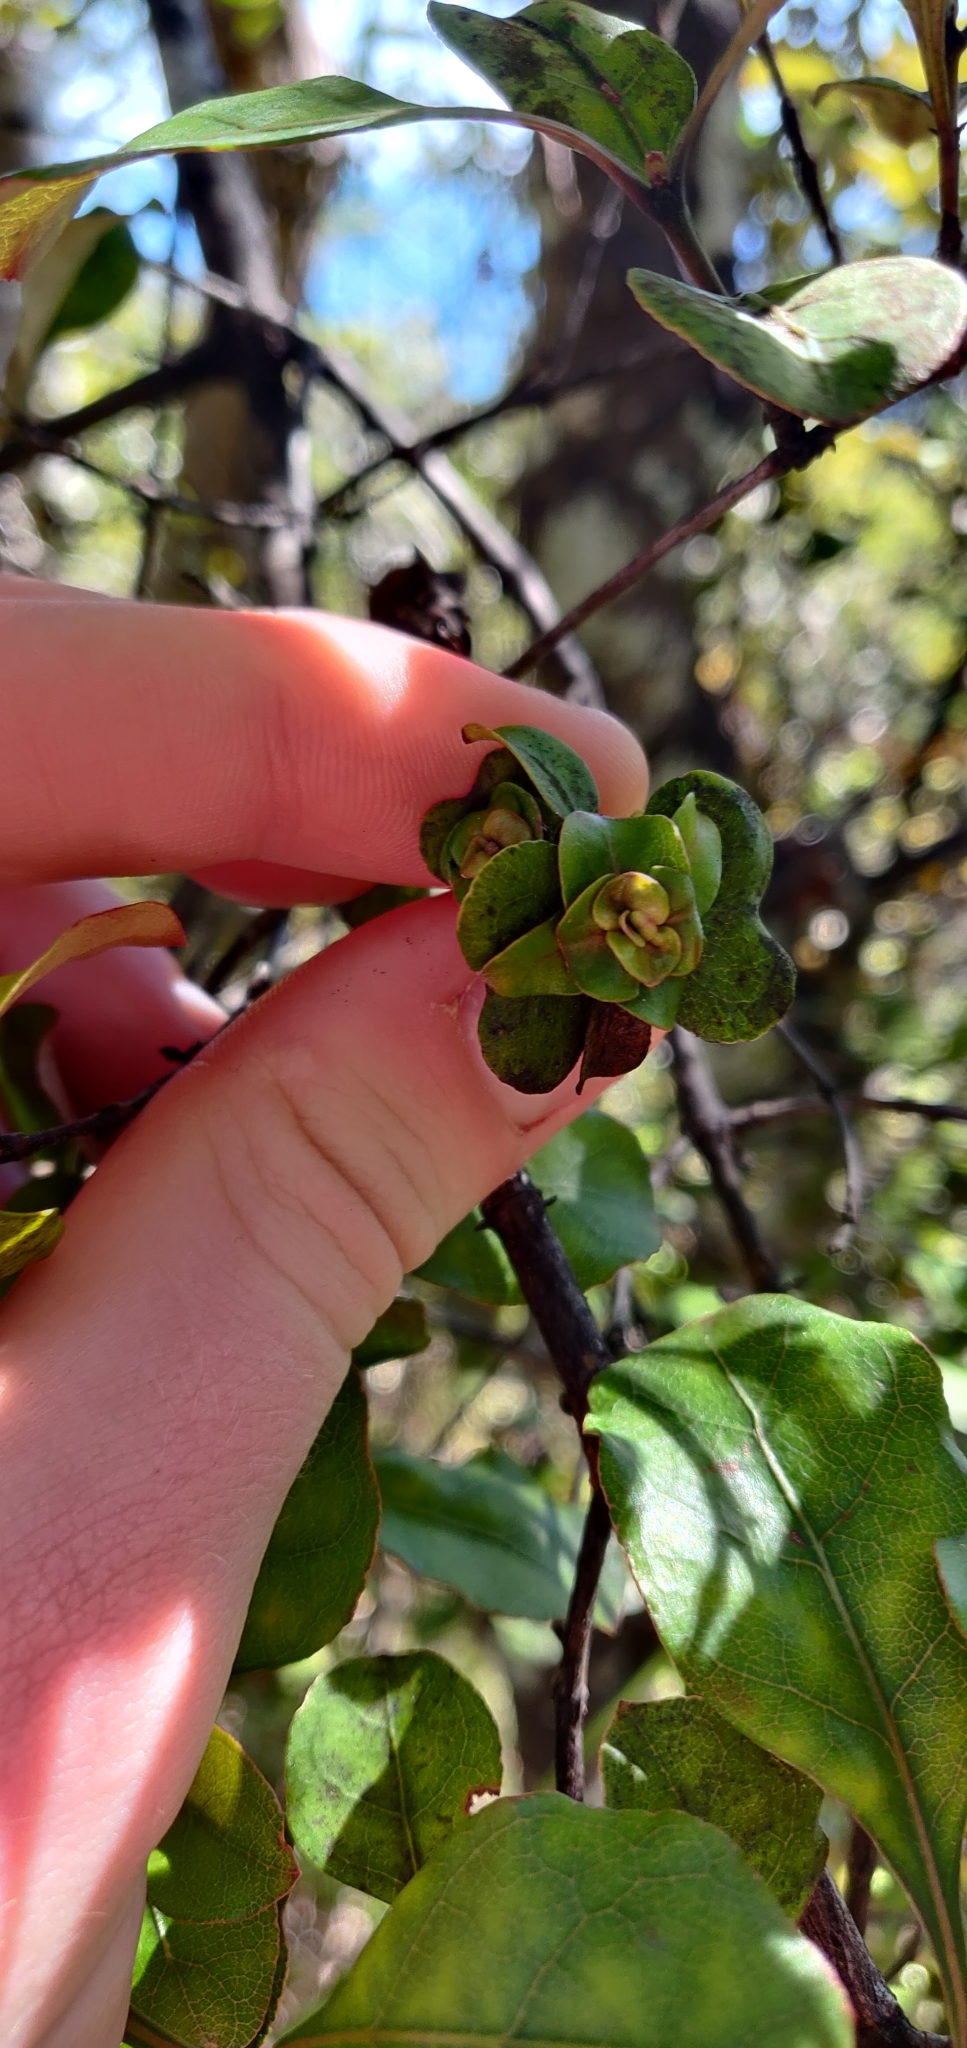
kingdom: Plantae
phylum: Tracheophyta
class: Magnoliopsida
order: Asterales
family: Asteraceae
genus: Ozothamnus
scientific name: Ozothamnus glomeratus
